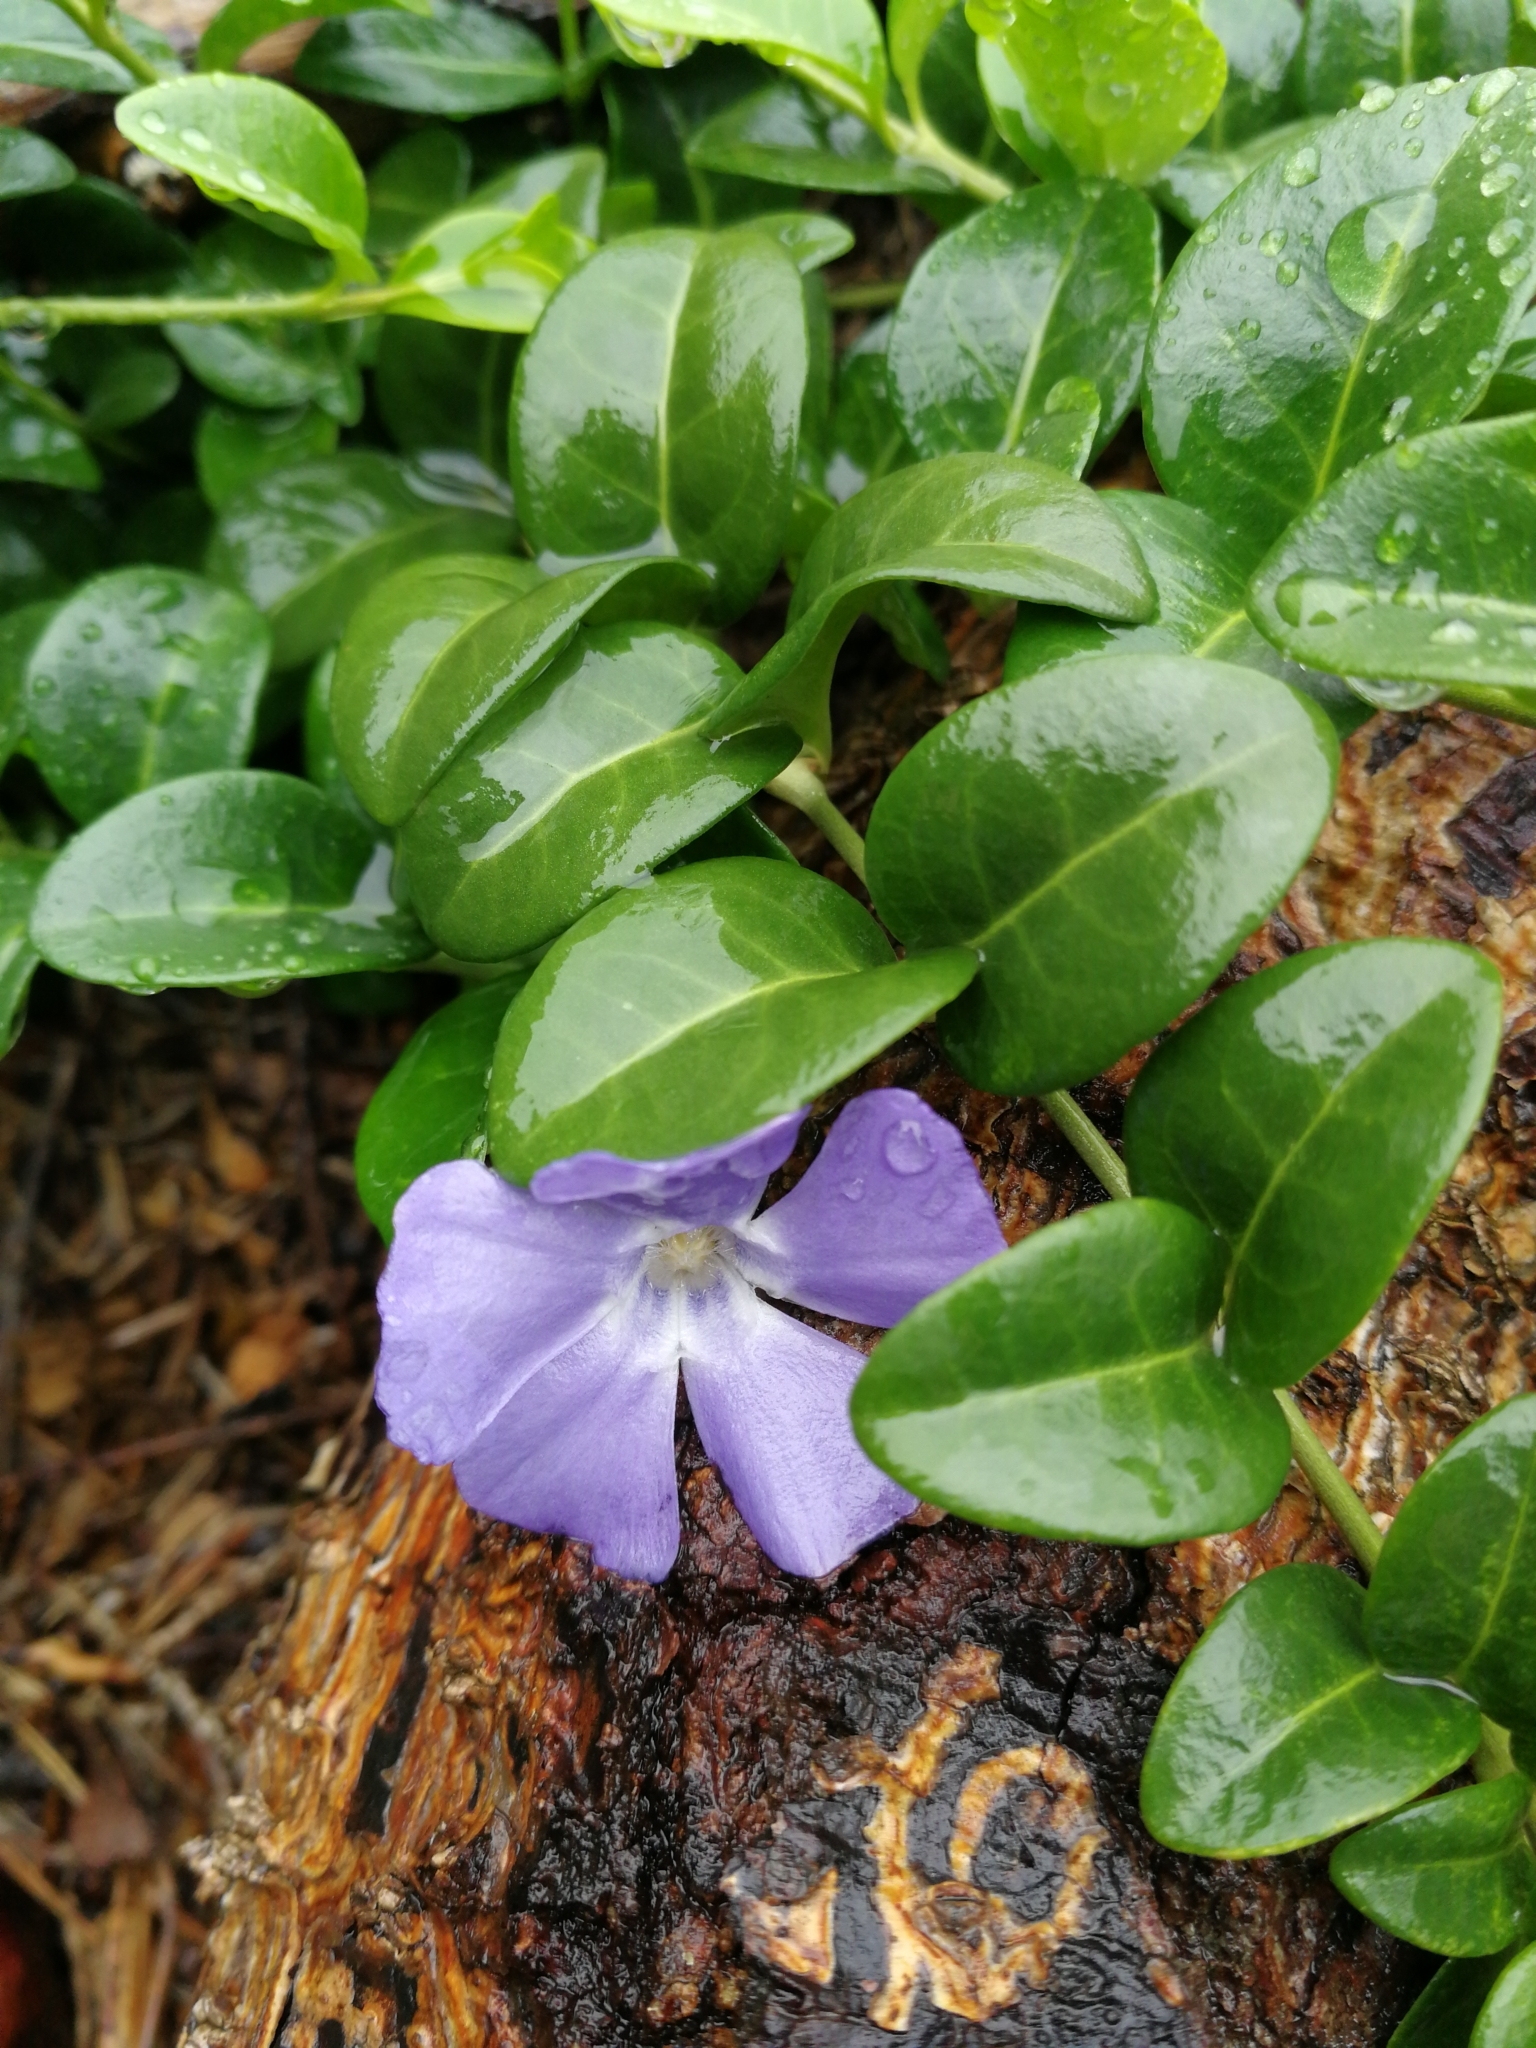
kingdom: Plantae
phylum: Tracheophyta
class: Magnoliopsida
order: Gentianales
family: Apocynaceae
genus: Vinca
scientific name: Vinca minor
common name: Lesser periwinkle
